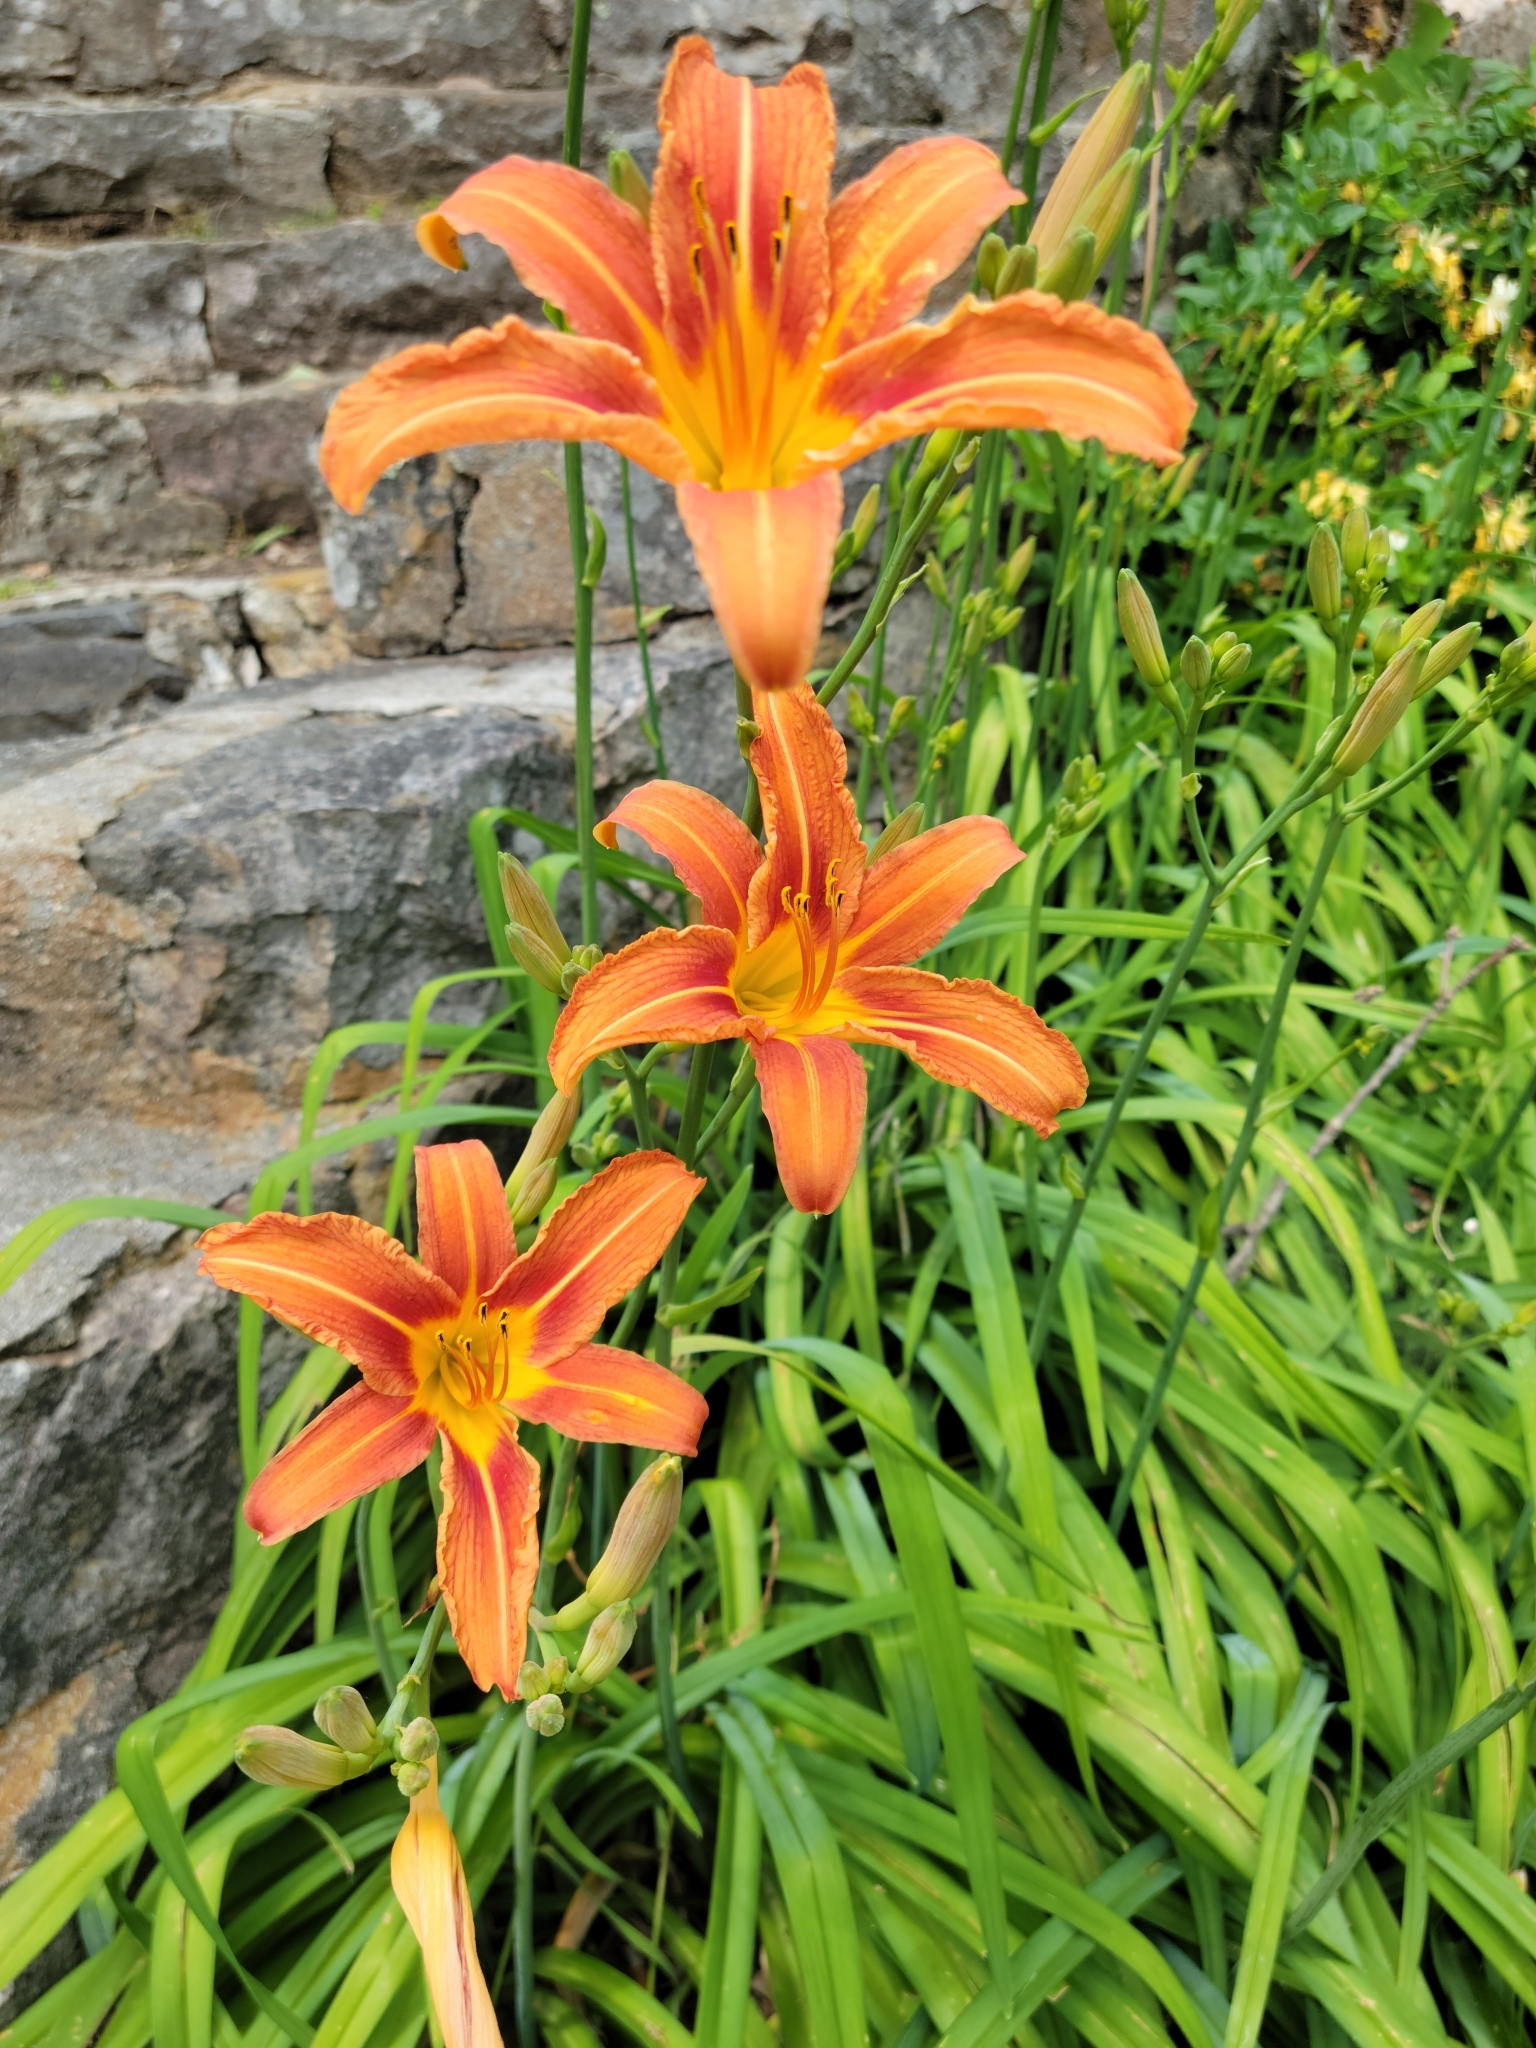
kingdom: Plantae
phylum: Tracheophyta
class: Liliopsida
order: Asparagales
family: Asphodelaceae
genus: Hemerocallis
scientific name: Hemerocallis fulva
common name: Orange day-lily
